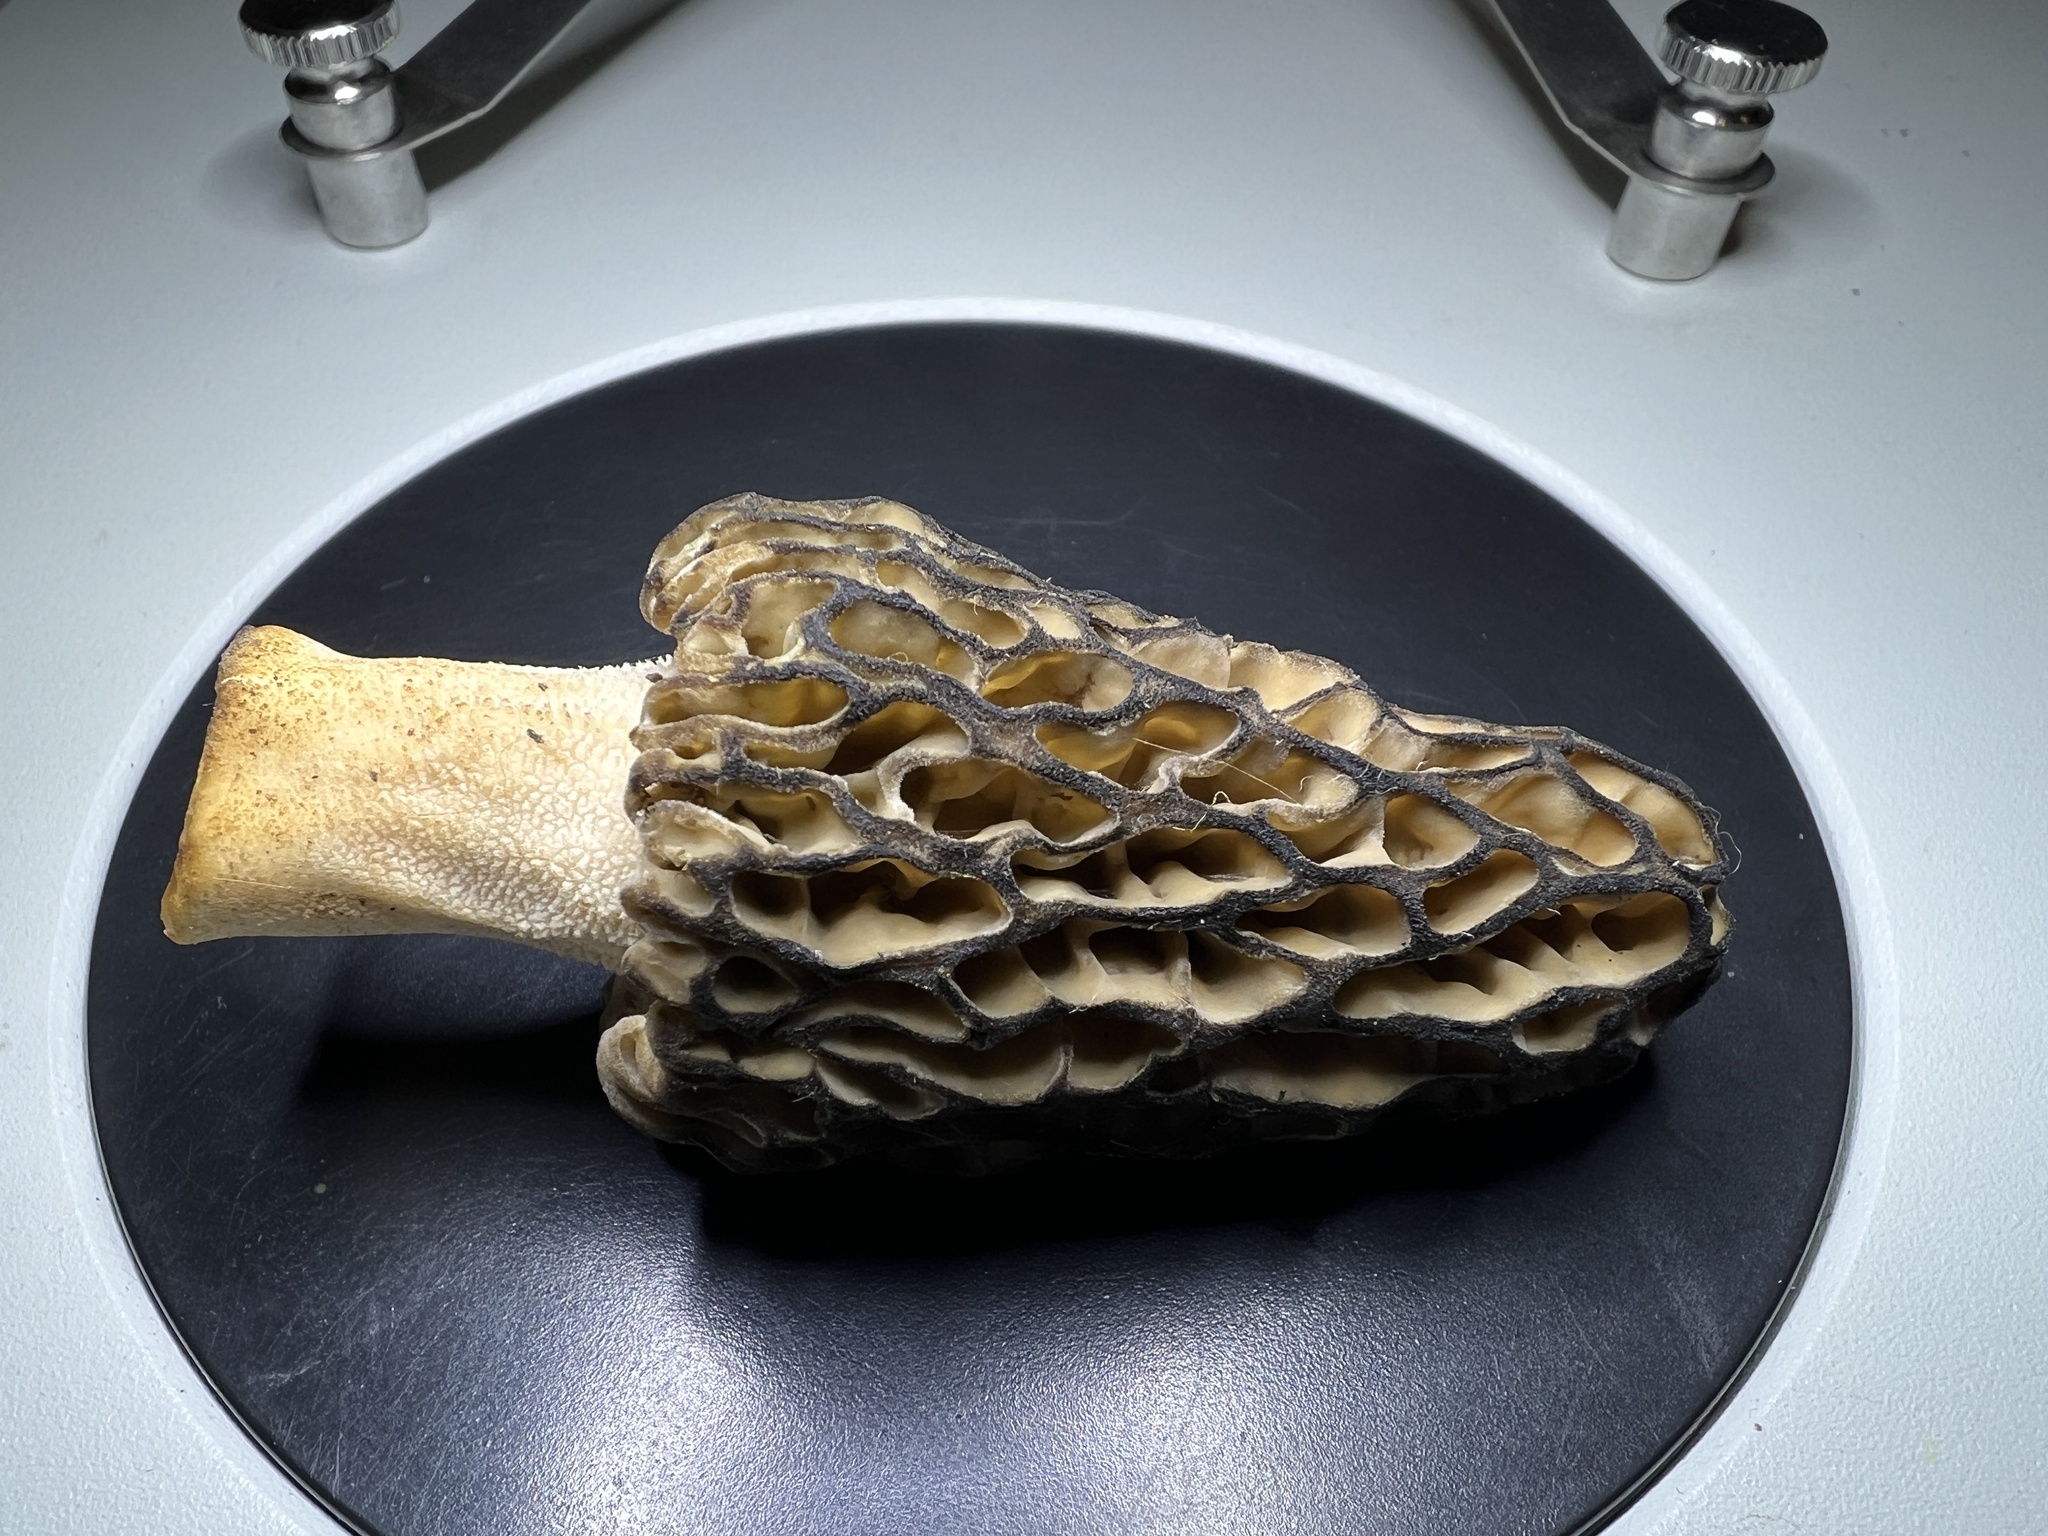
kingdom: Fungi
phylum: Ascomycota
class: Pezizomycetes
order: Pezizales
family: Morchellaceae
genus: Morchella
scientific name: Morchella
